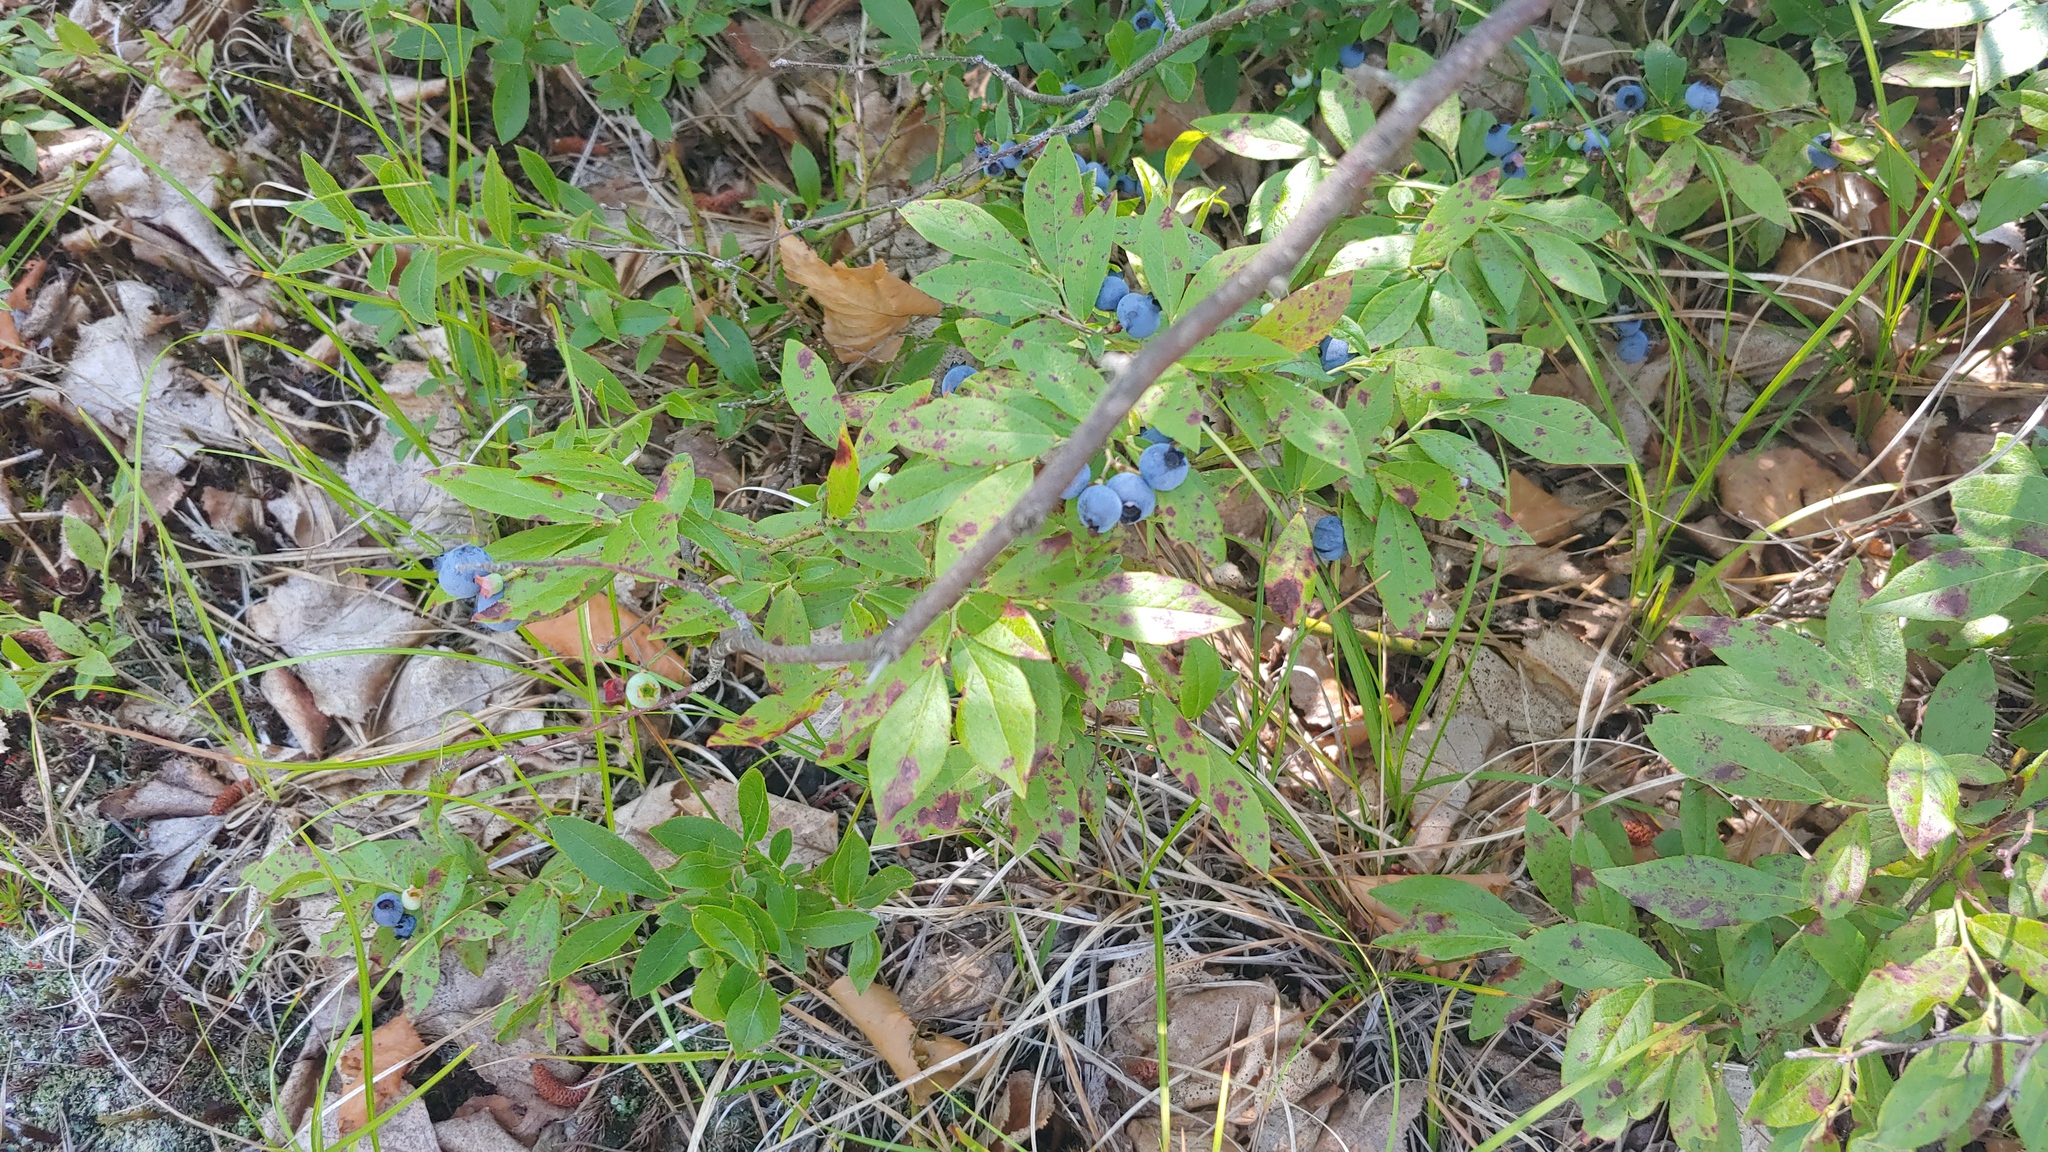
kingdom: Plantae
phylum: Tracheophyta
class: Magnoliopsida
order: Ericales
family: Ericaceae
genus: Vaccinium
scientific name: Vaccinium angustifolium
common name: Early lowbush blueberry
